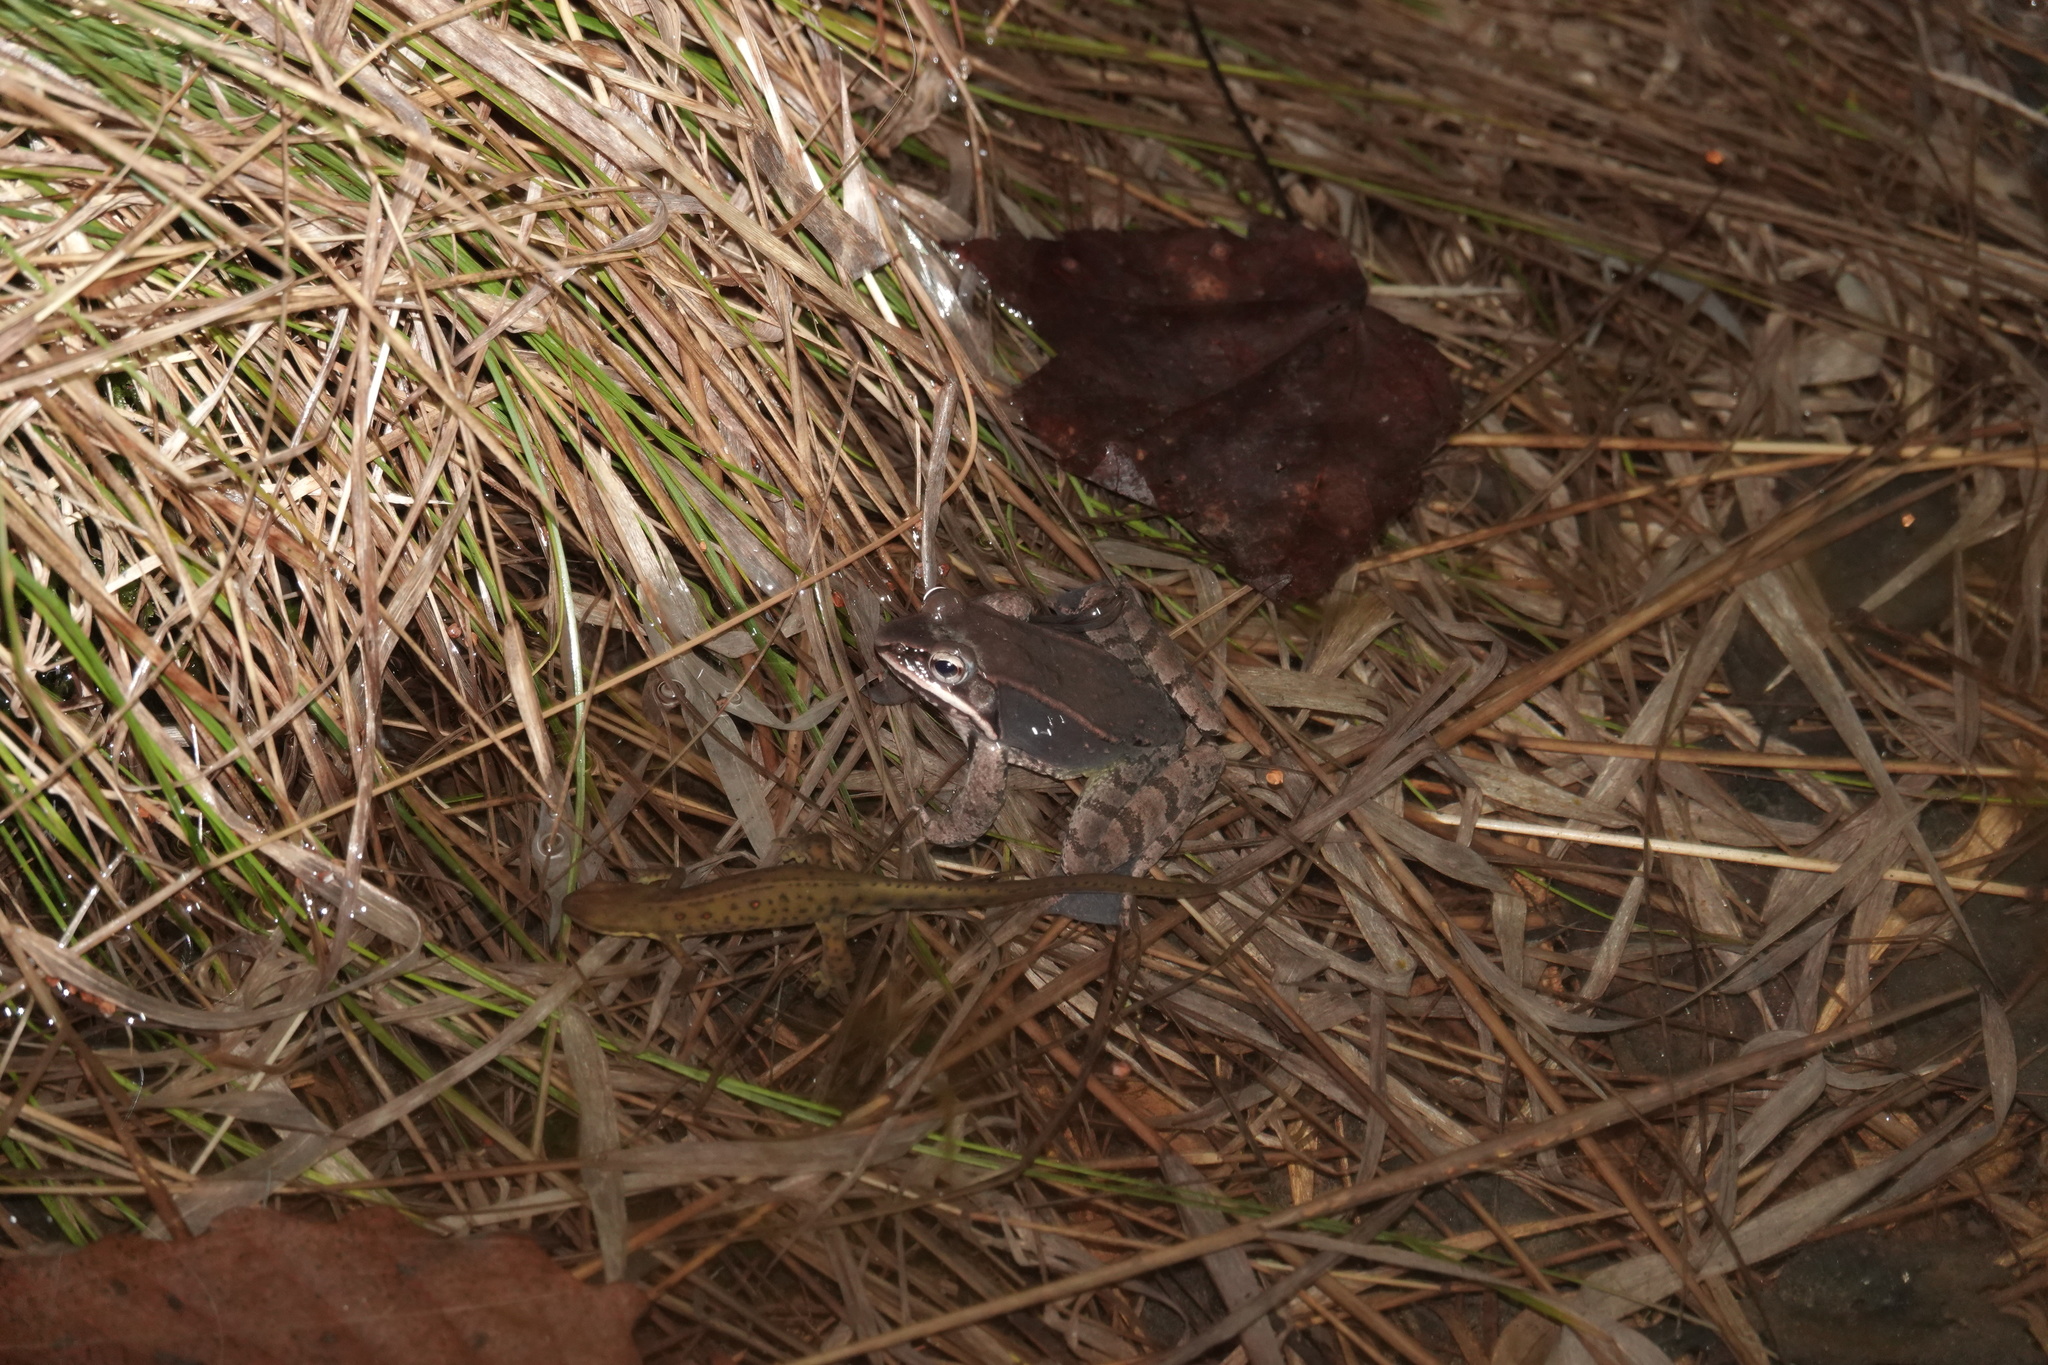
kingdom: Animalia
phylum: Chordata
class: Amphibia
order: Anura
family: Ranidae
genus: Lithobates
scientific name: Lithobates sylvaticus
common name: Wood frog
